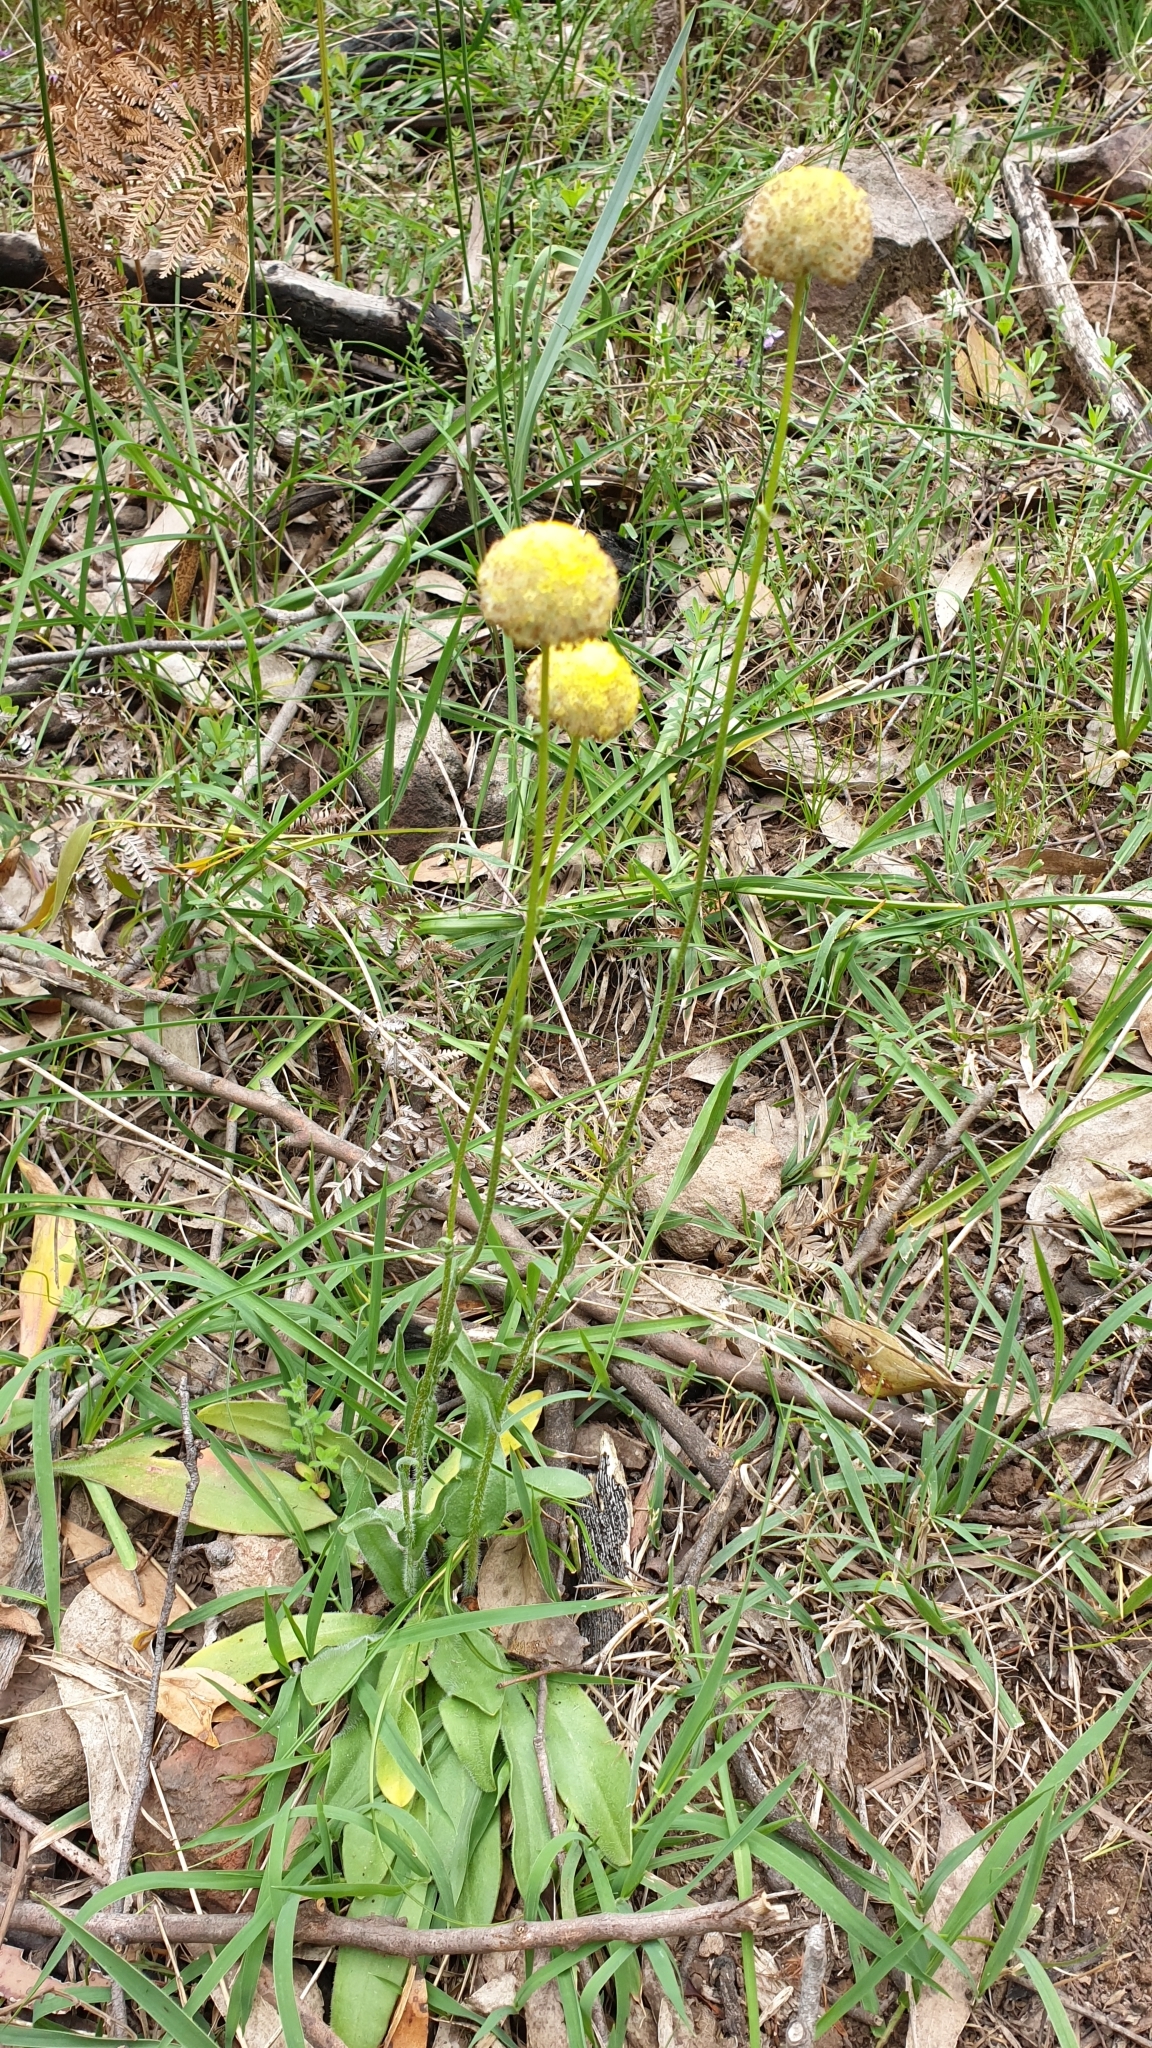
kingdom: Plantae
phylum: Tracheophyta
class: Magnoliopsida
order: Asterales
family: Asteraceae
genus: Craspedia
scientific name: Craspedia variabilis
